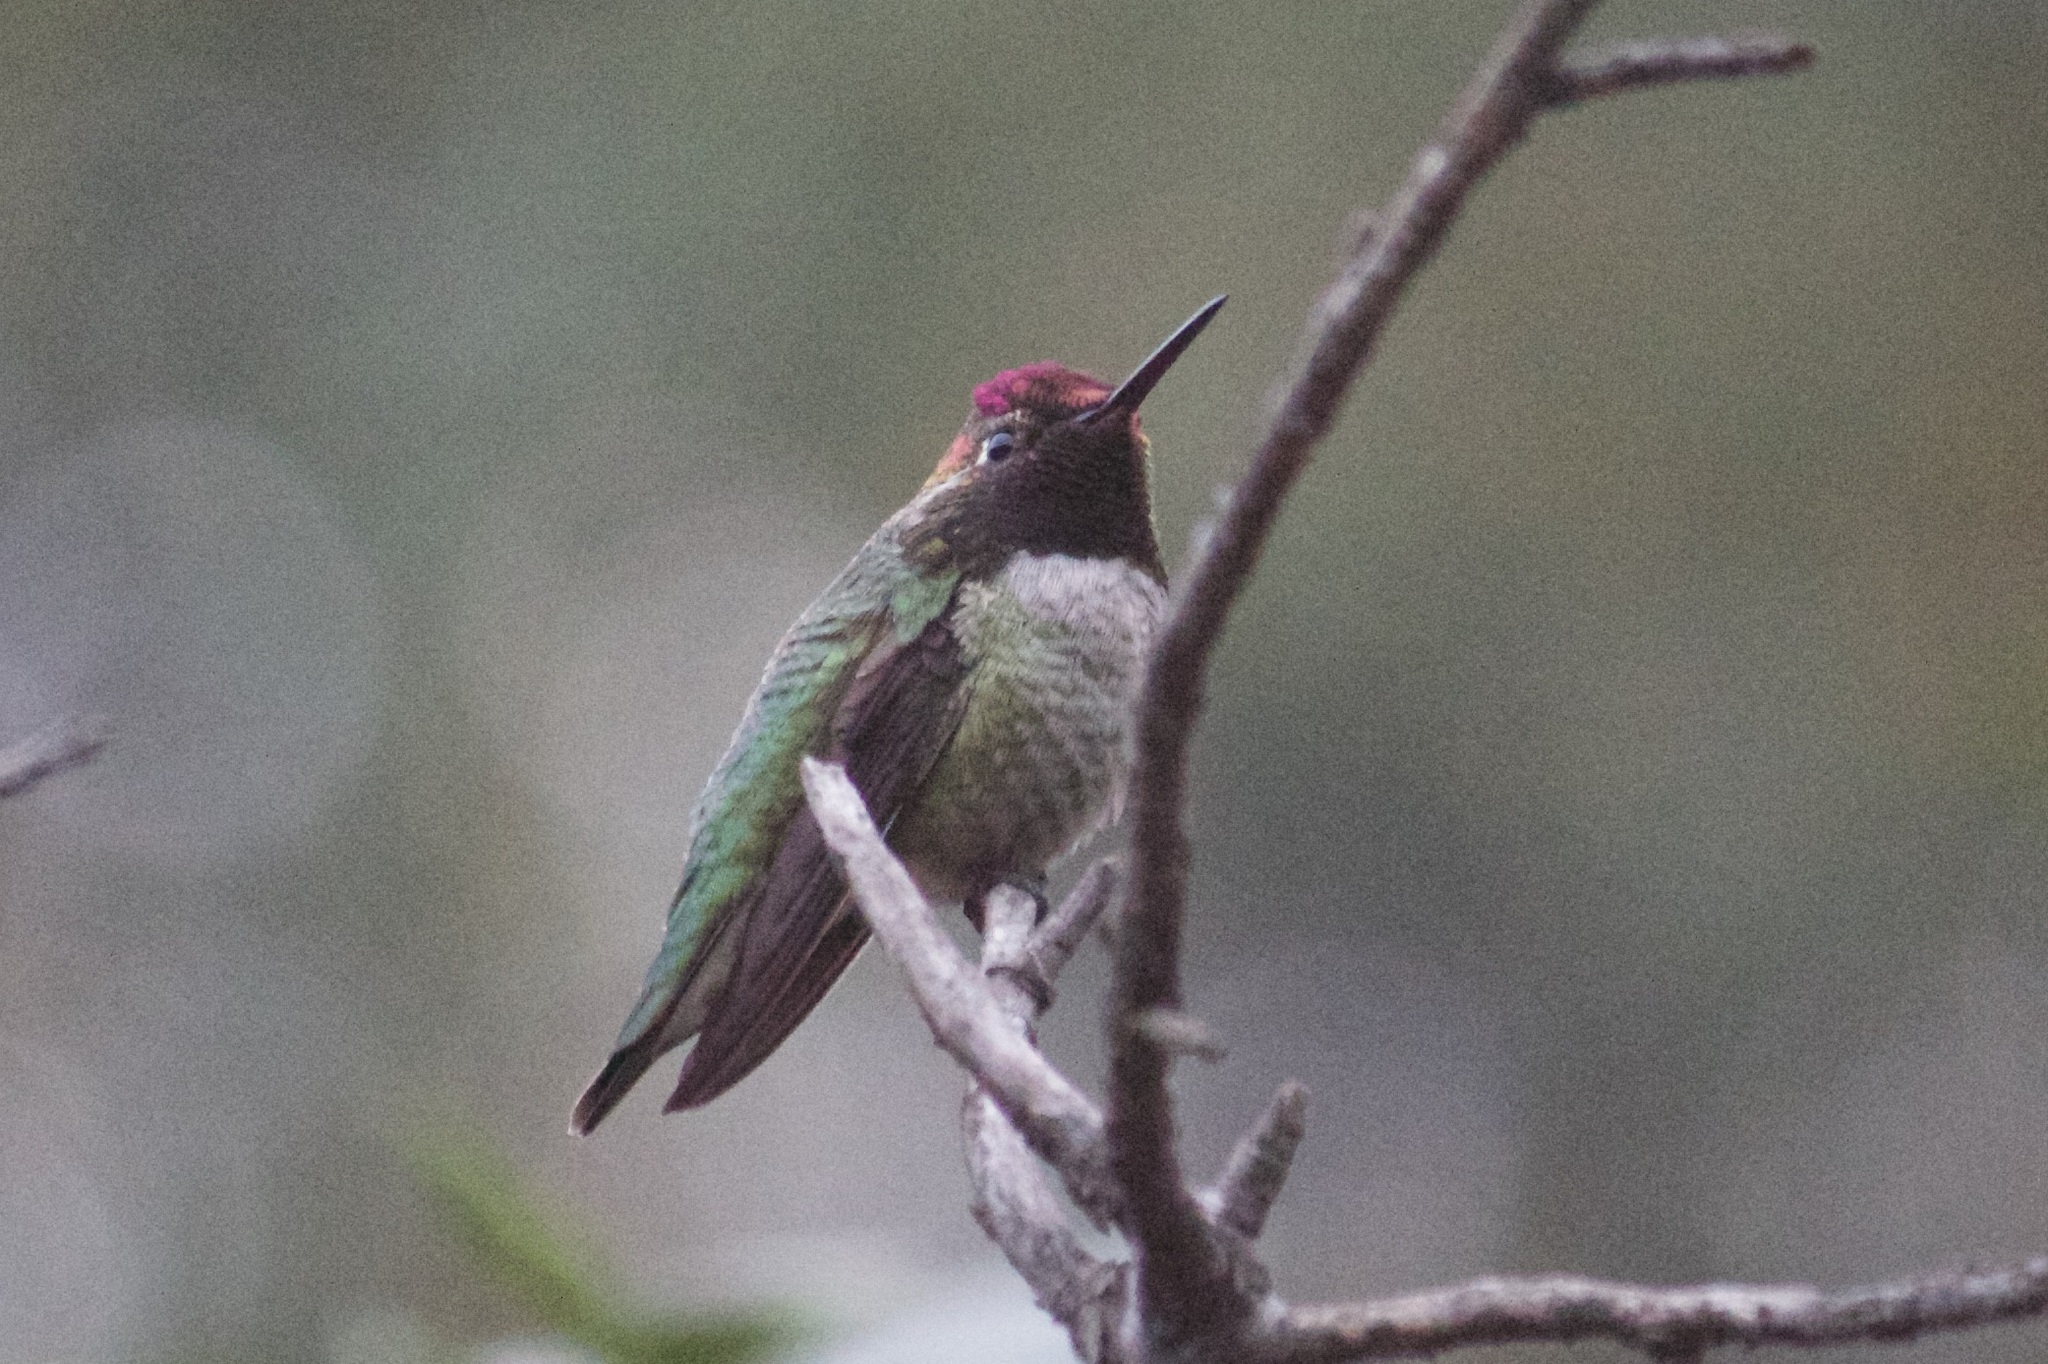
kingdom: Animalia
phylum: Chordata
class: Aves
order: Apodiformes
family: Trochilidae
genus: Calypte
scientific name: Calypte anna
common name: Anna's hummingbird
